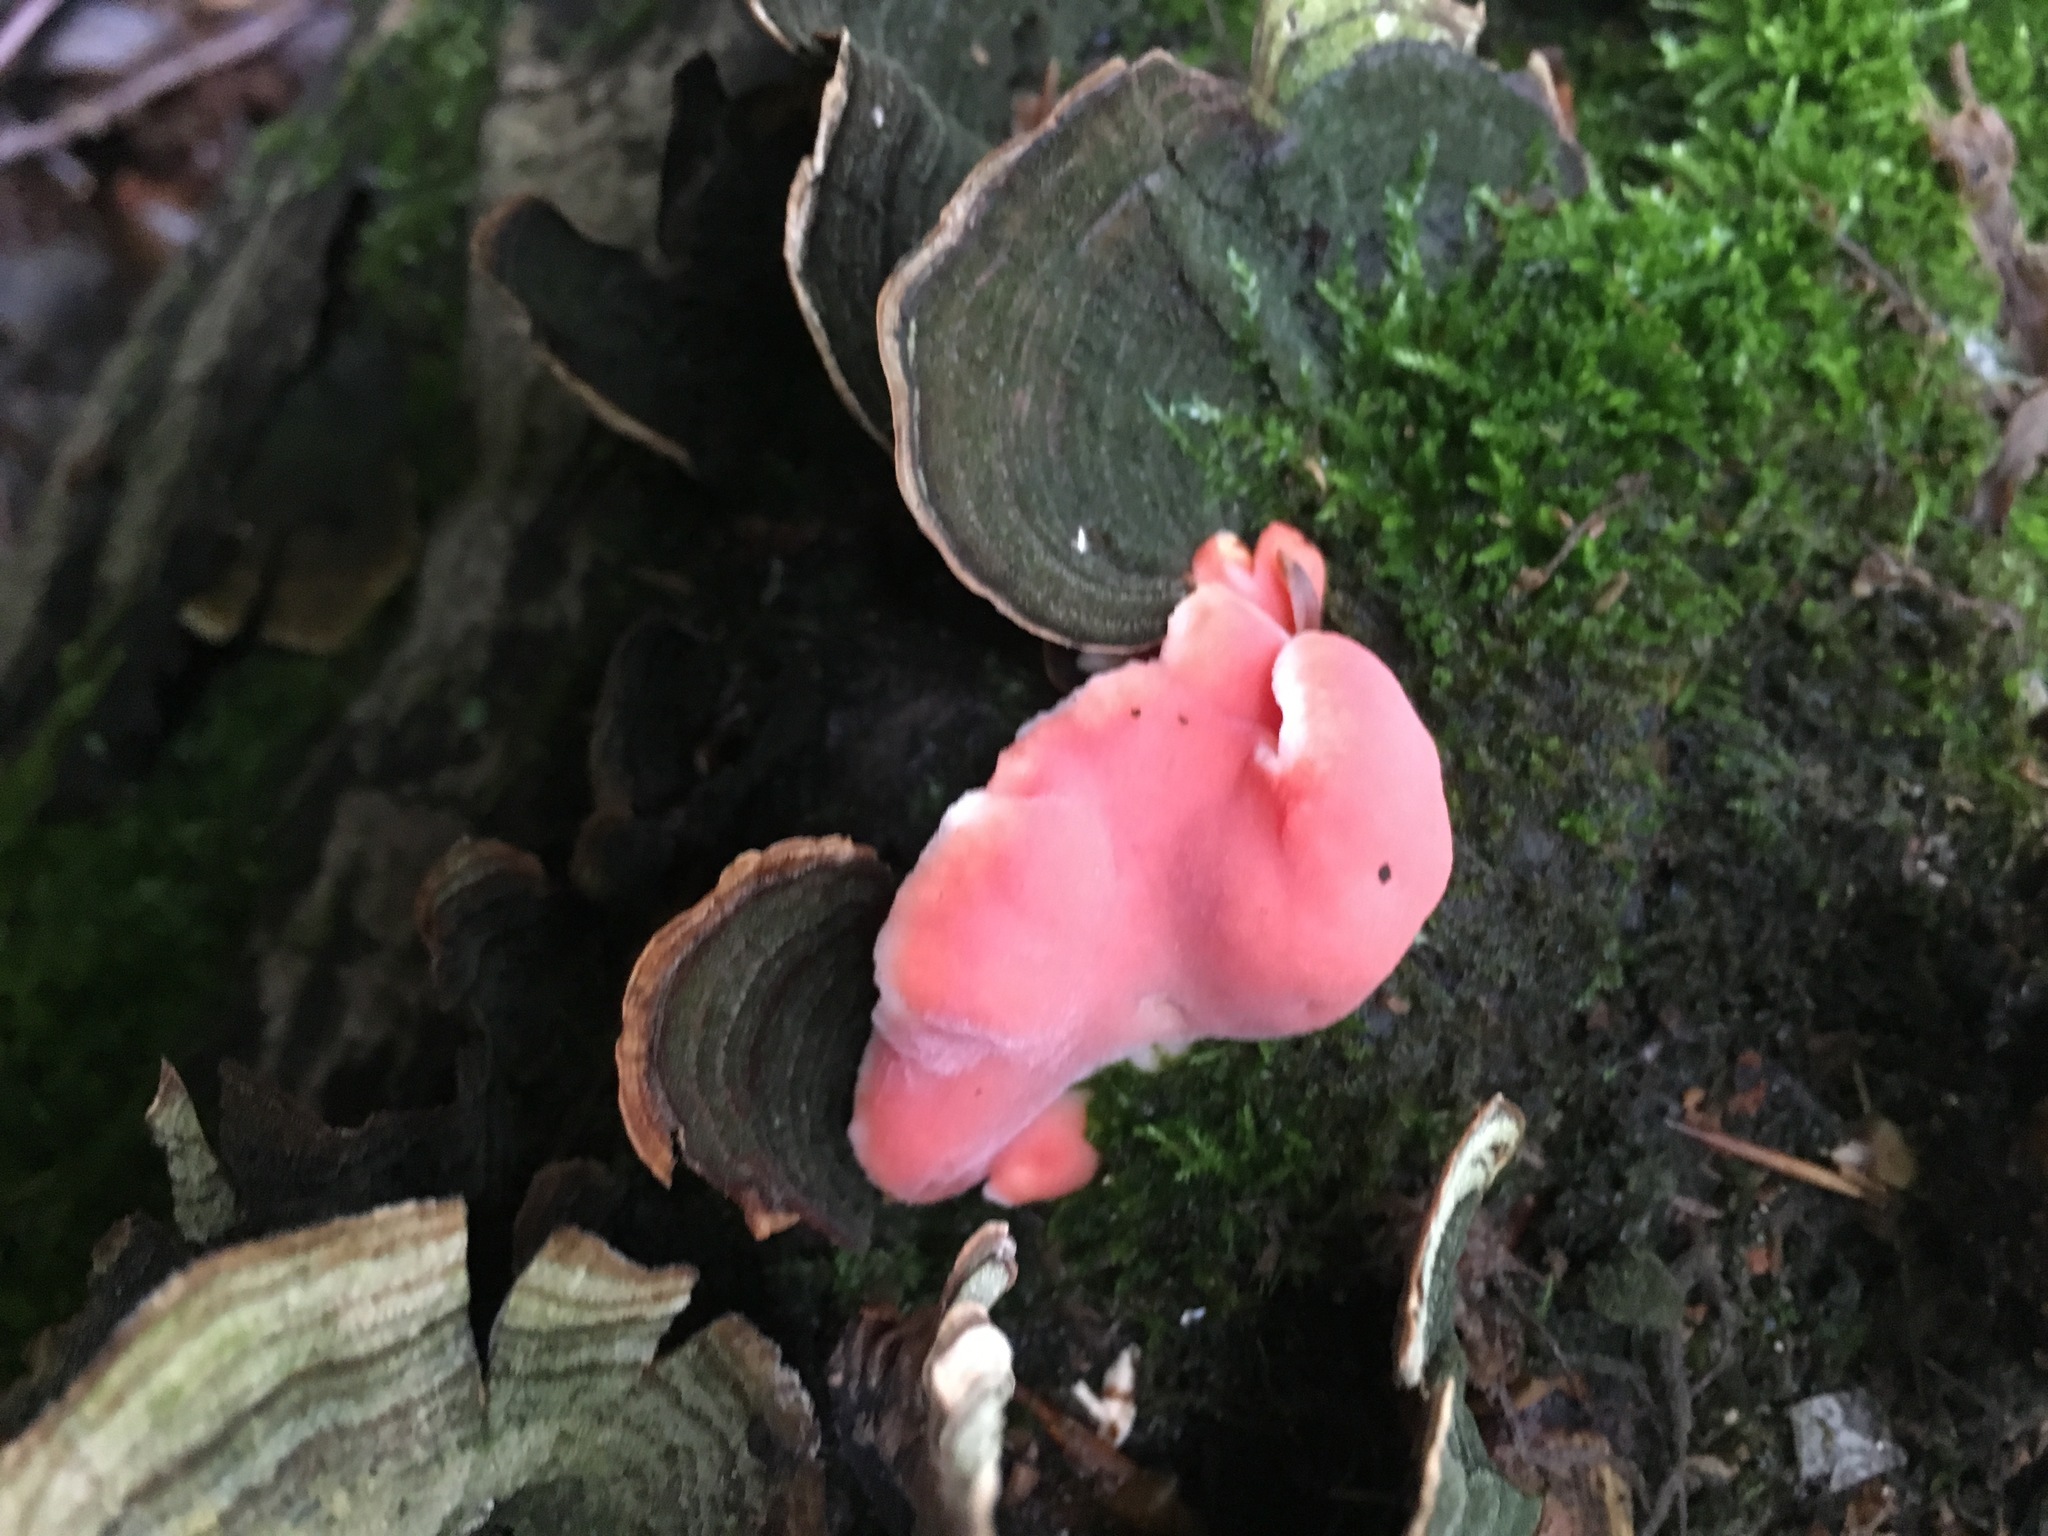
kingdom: Fungi
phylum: Basidiomycota
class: Agaricomycetes
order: Polyporales
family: Irpicaceae
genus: Byssomerulius
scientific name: Byssomerulius incarnatus
